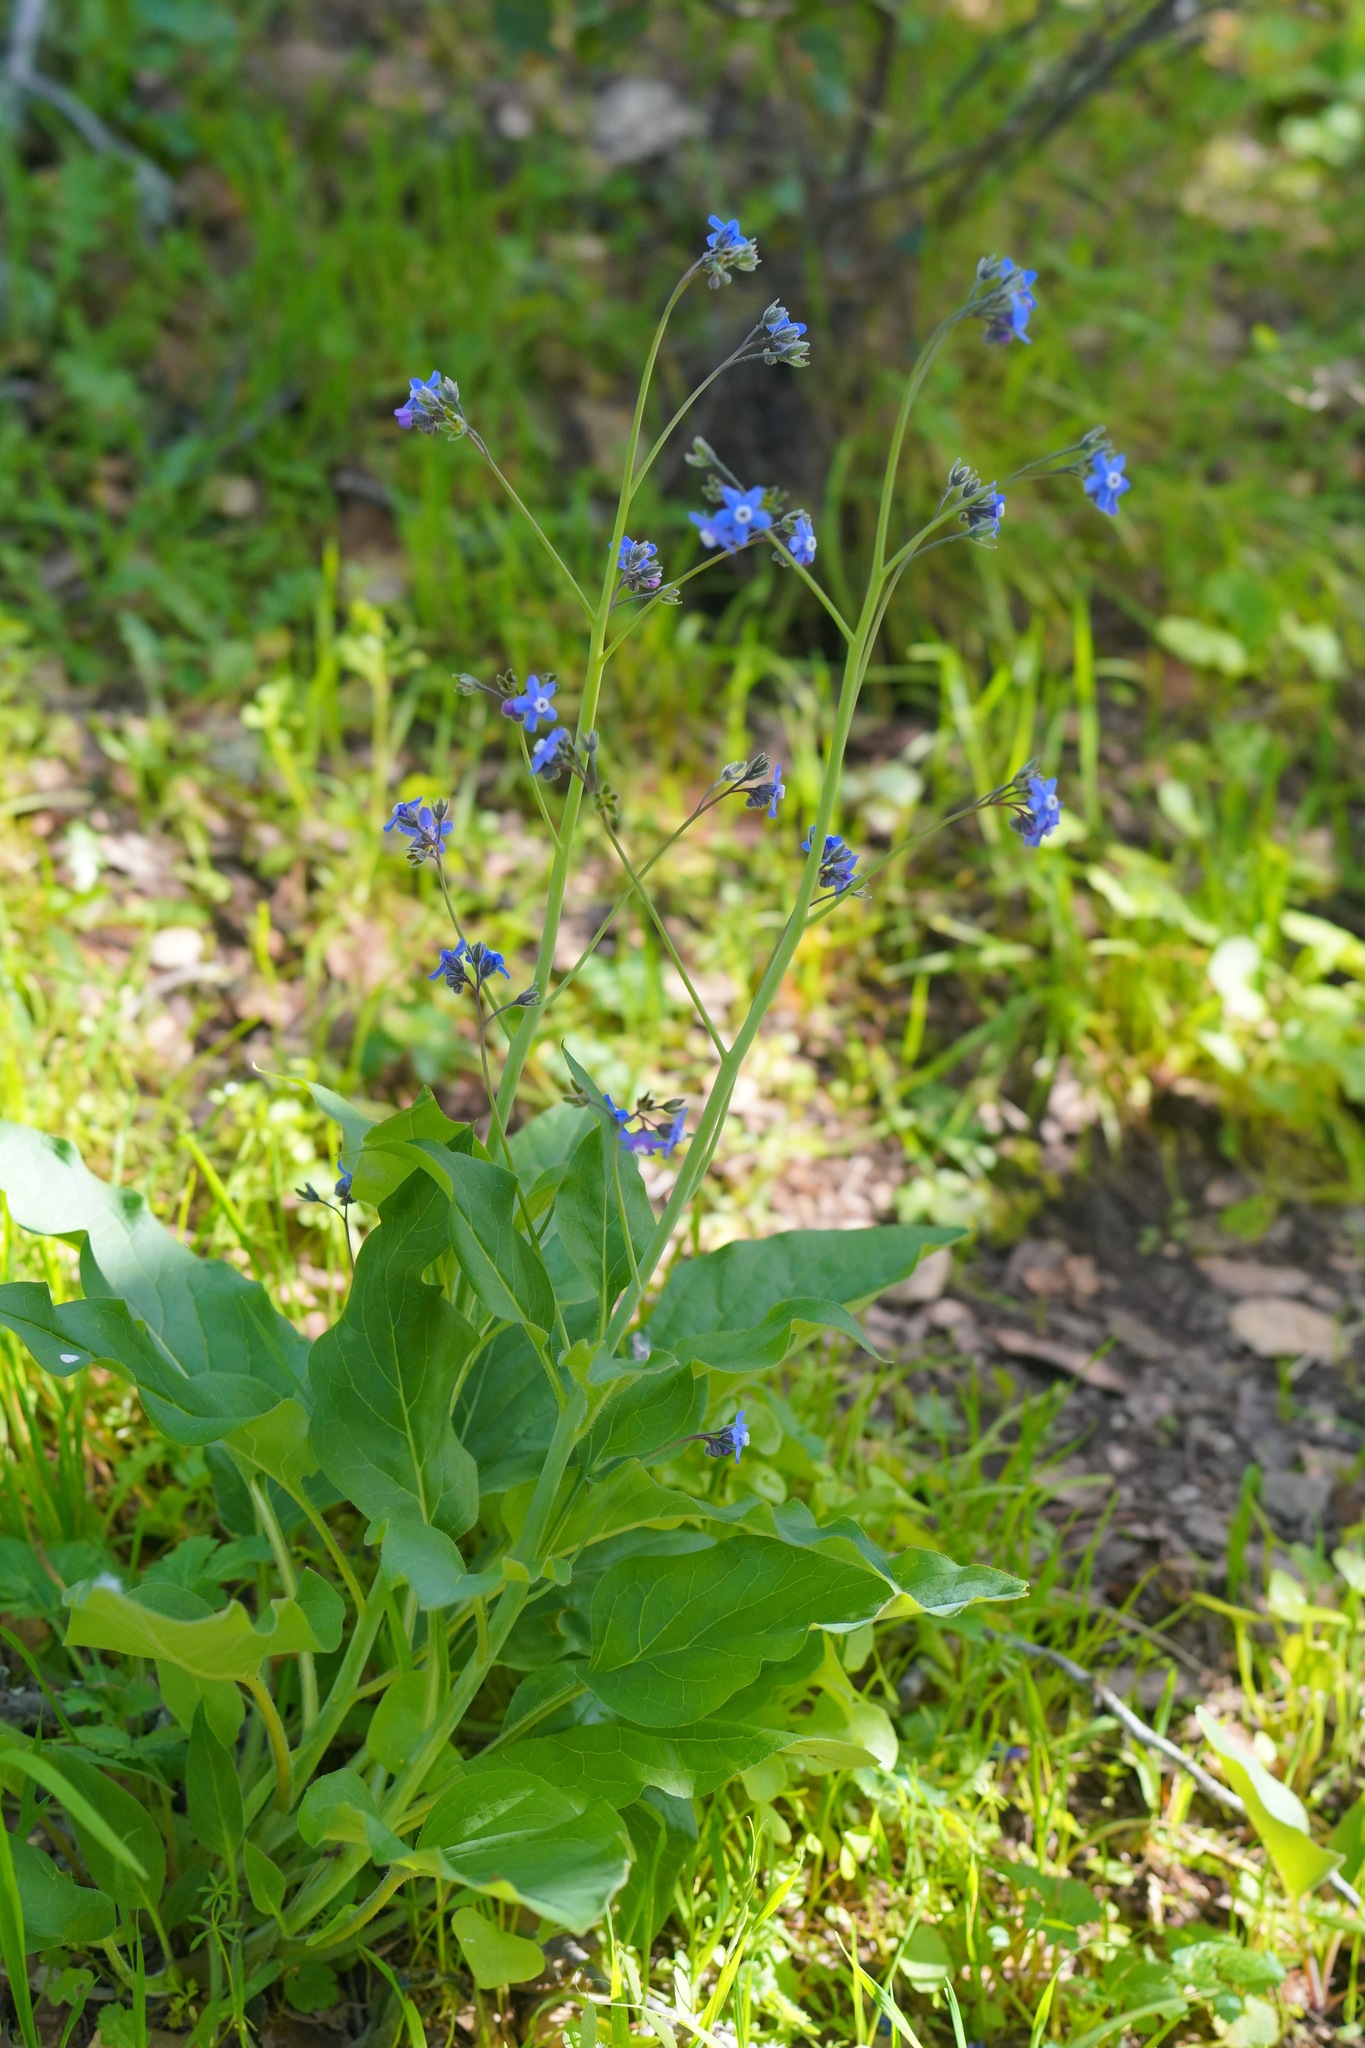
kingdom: Plantae
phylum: Tracheophyta
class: Magnoliopsida
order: Boraginales
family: Boraginaceae
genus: Adelinia
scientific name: Adelinia grande
